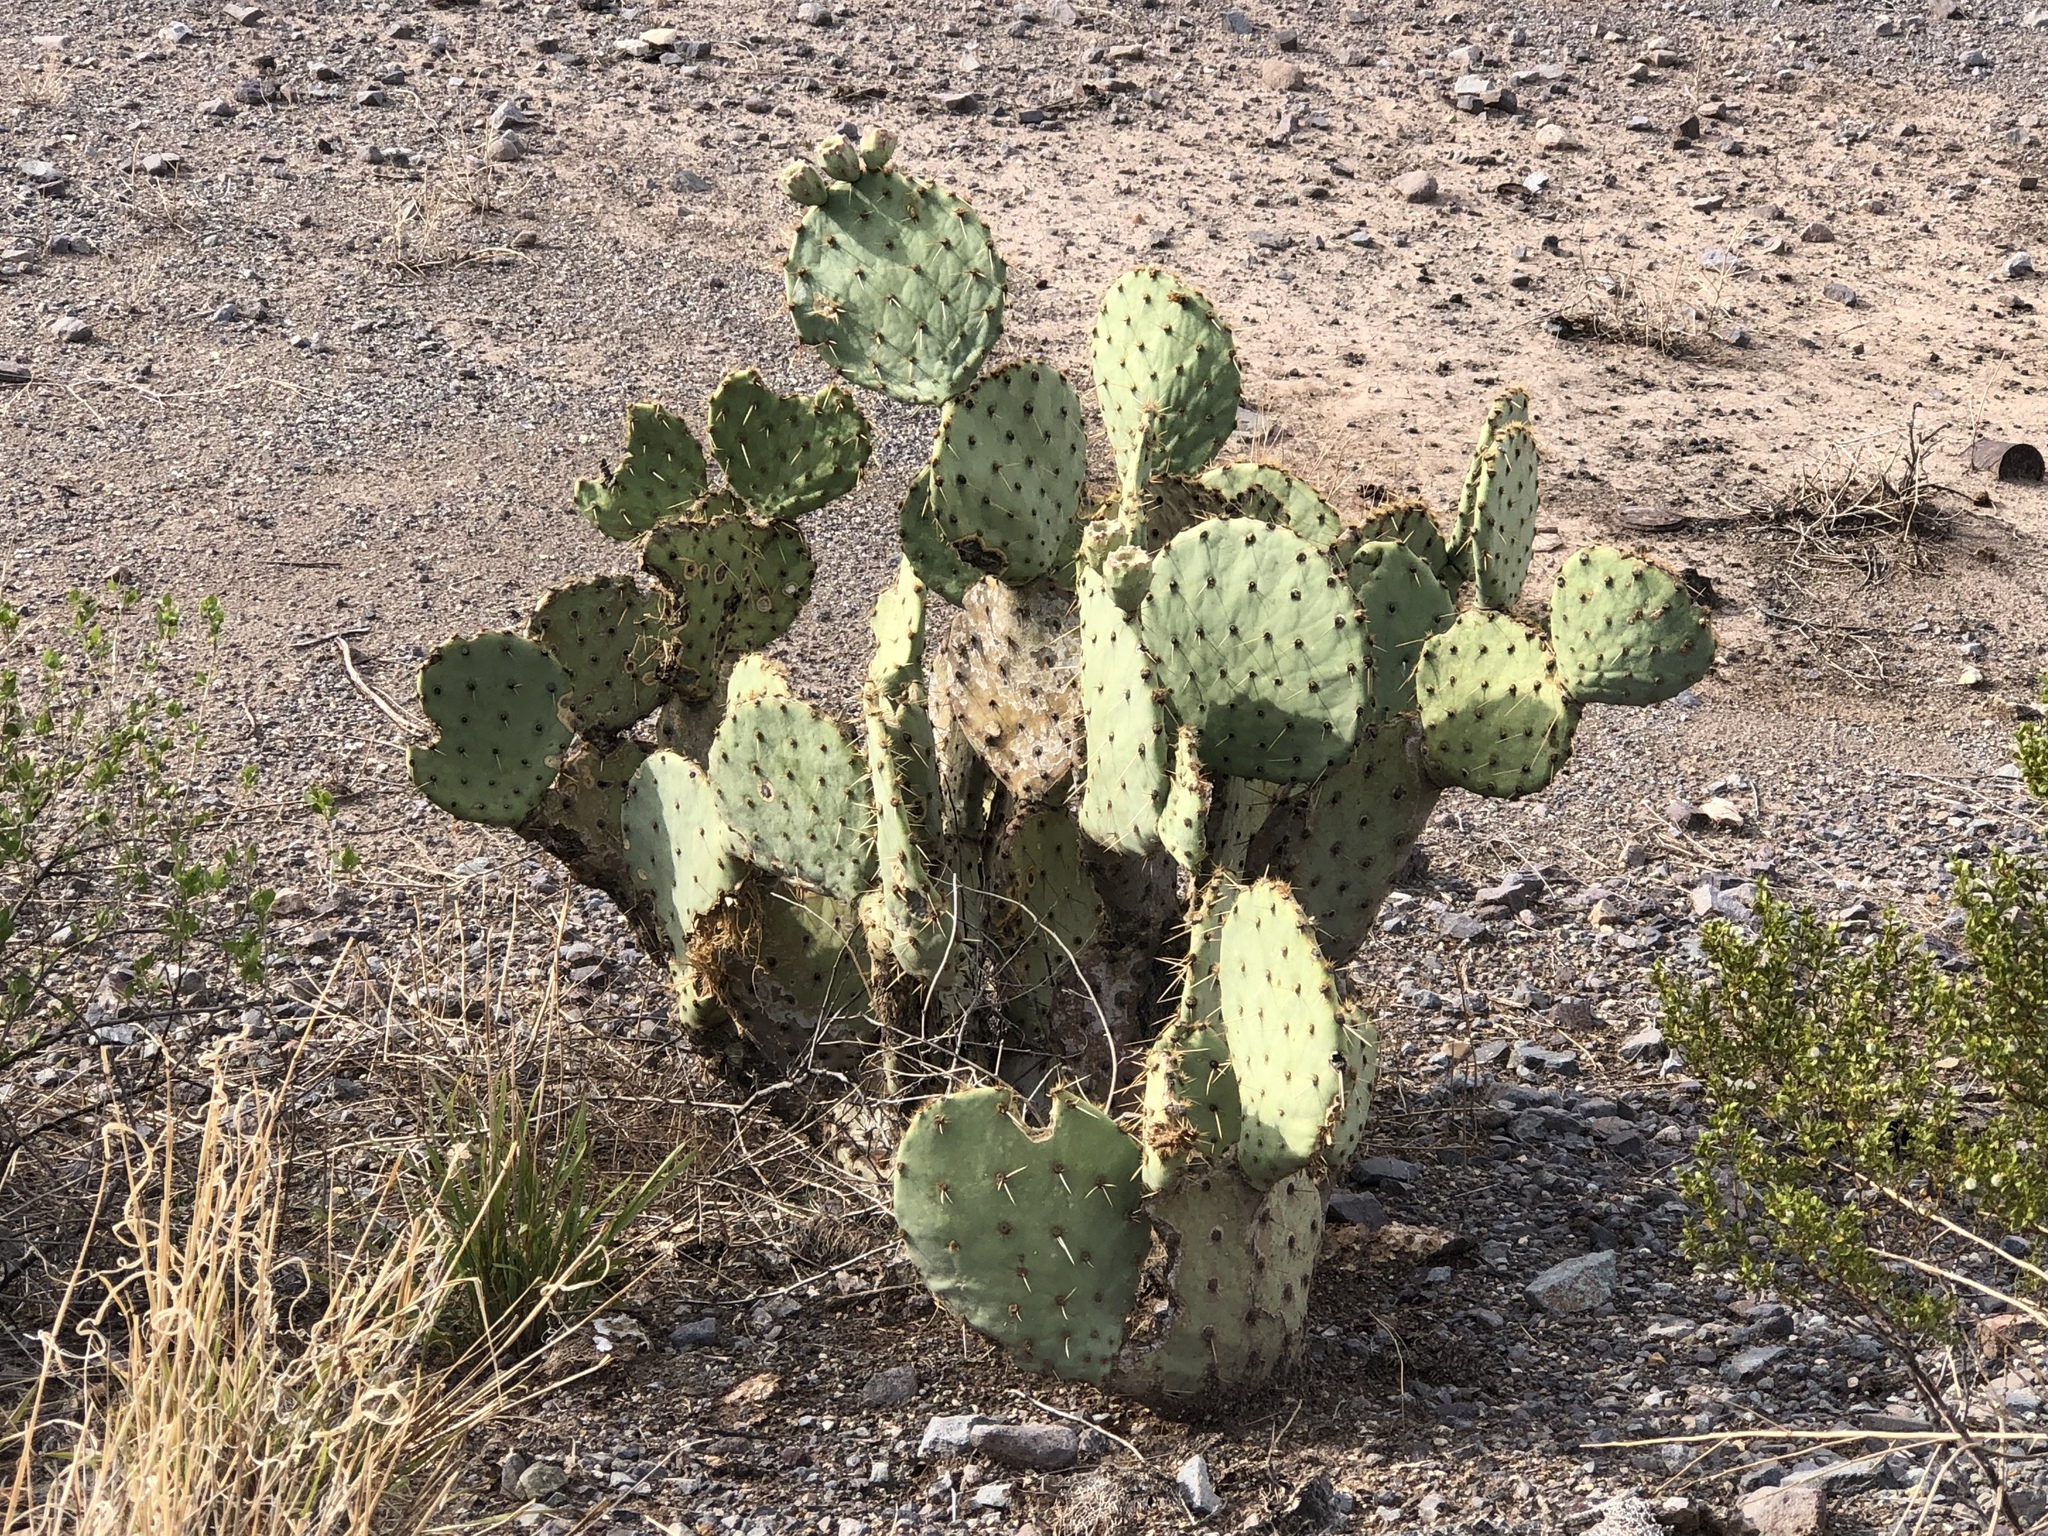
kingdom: Plantae
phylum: Tracheophyta
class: Magnoliopsida
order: Caryophyllales
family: Cactaceae
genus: Opuntia
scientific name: Opuntia engelmannii
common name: Cactus-apple
